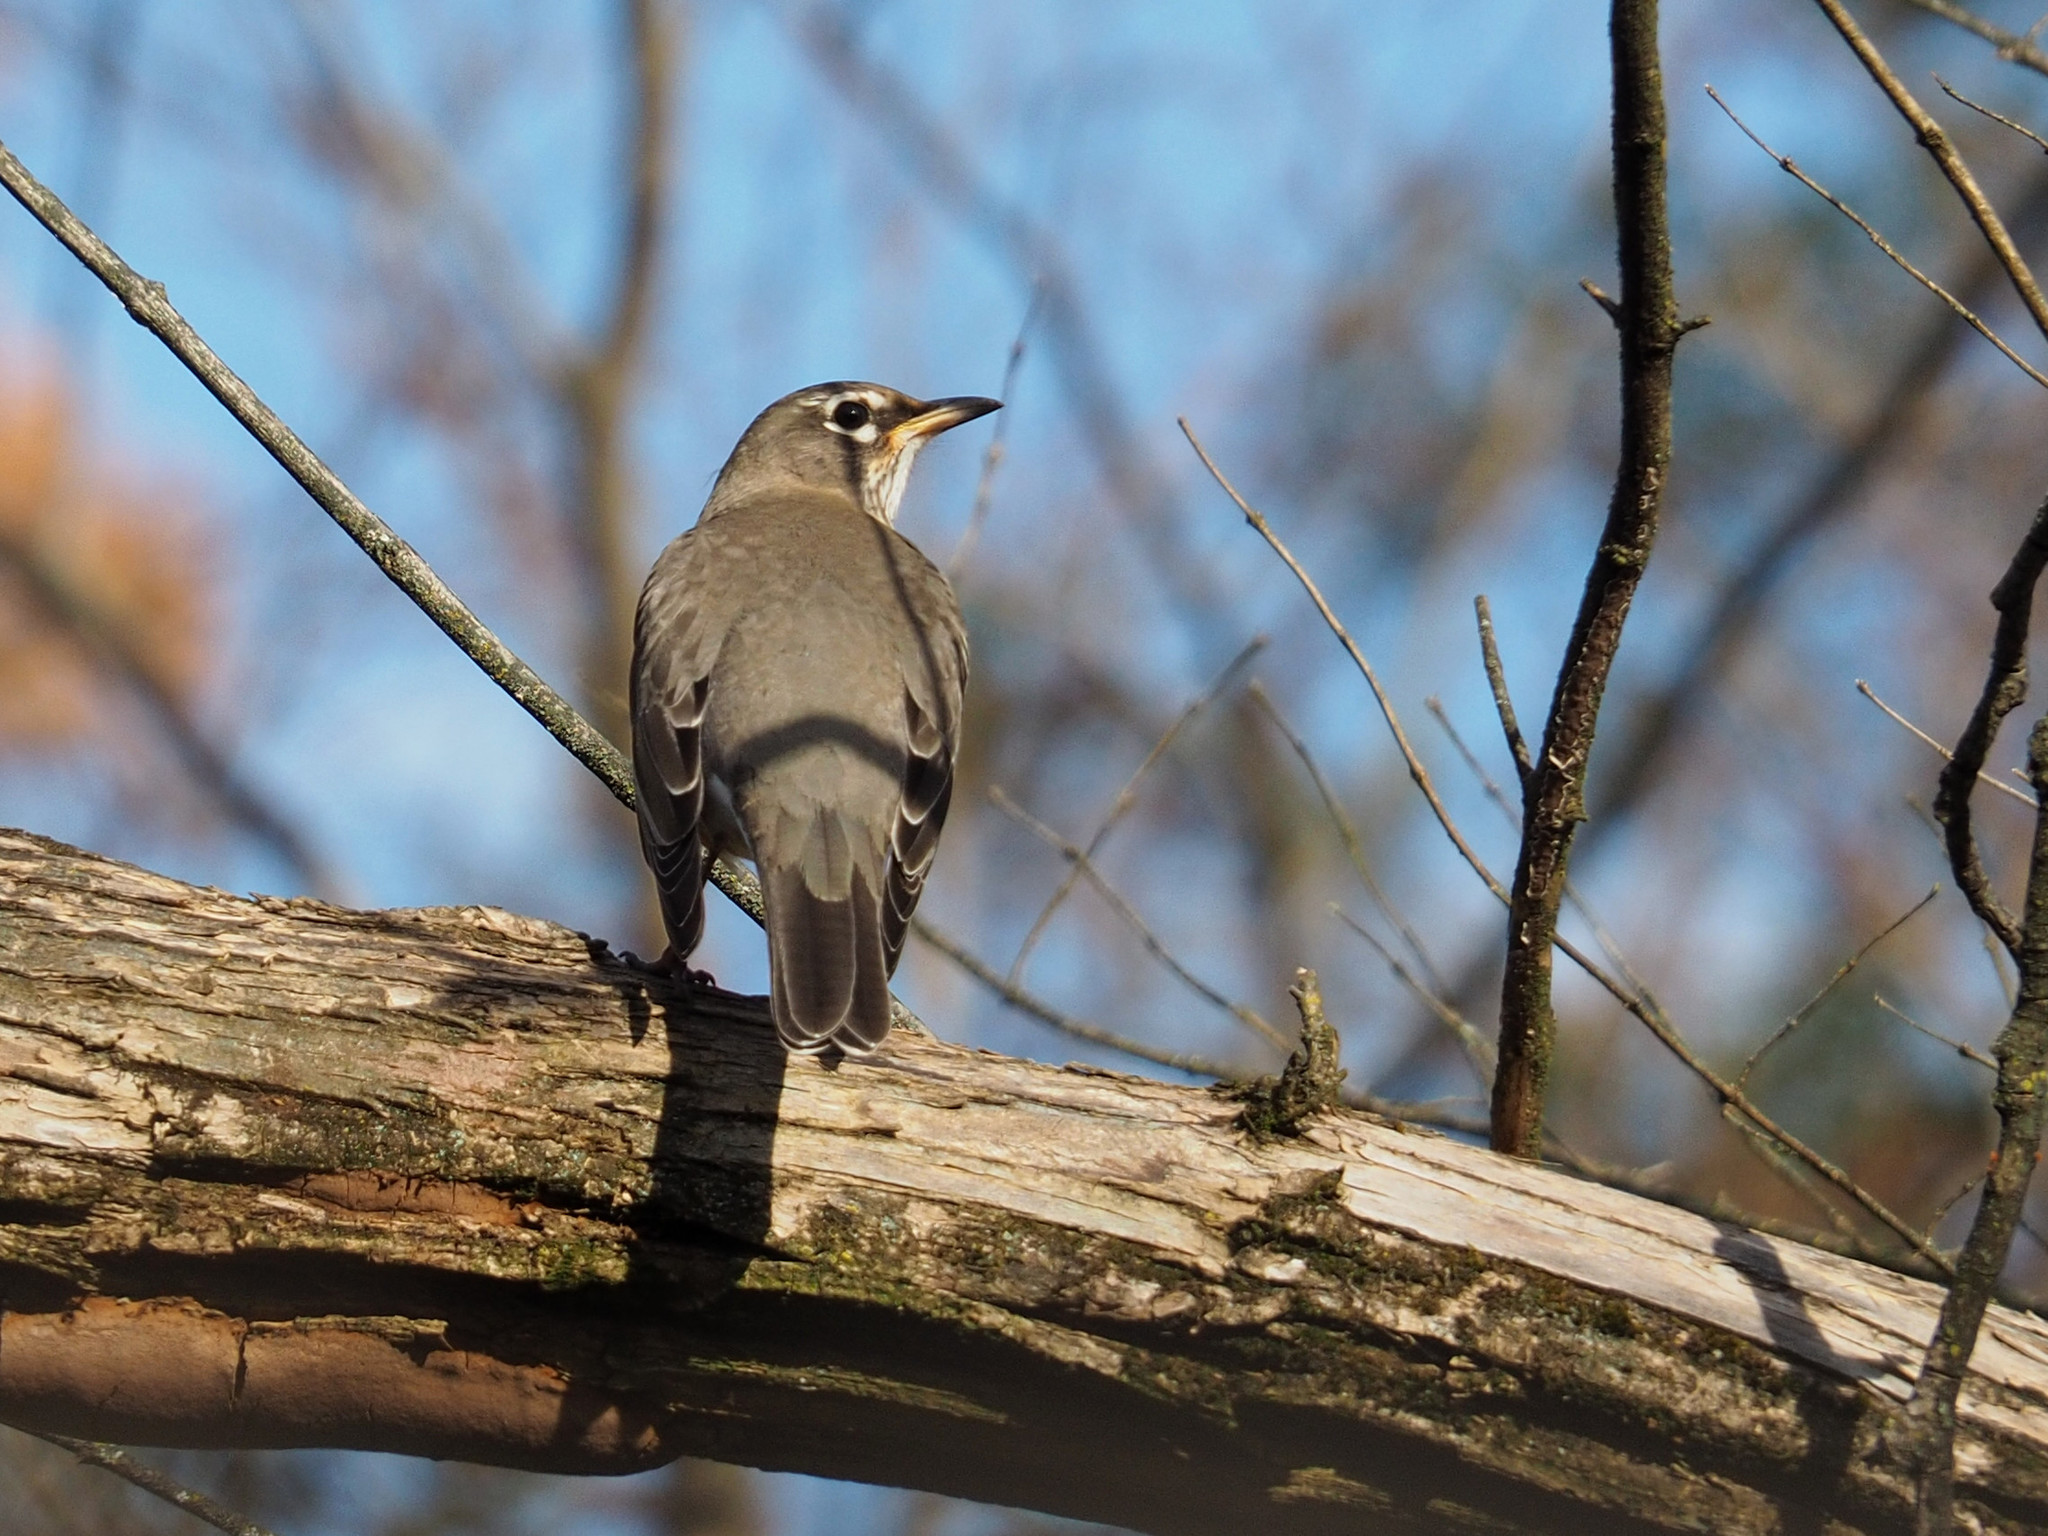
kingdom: Animalia
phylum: Chordata
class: Aves
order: Passeriformes
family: Turdidae
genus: Turdus
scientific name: Turdus migratorius
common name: American robin
